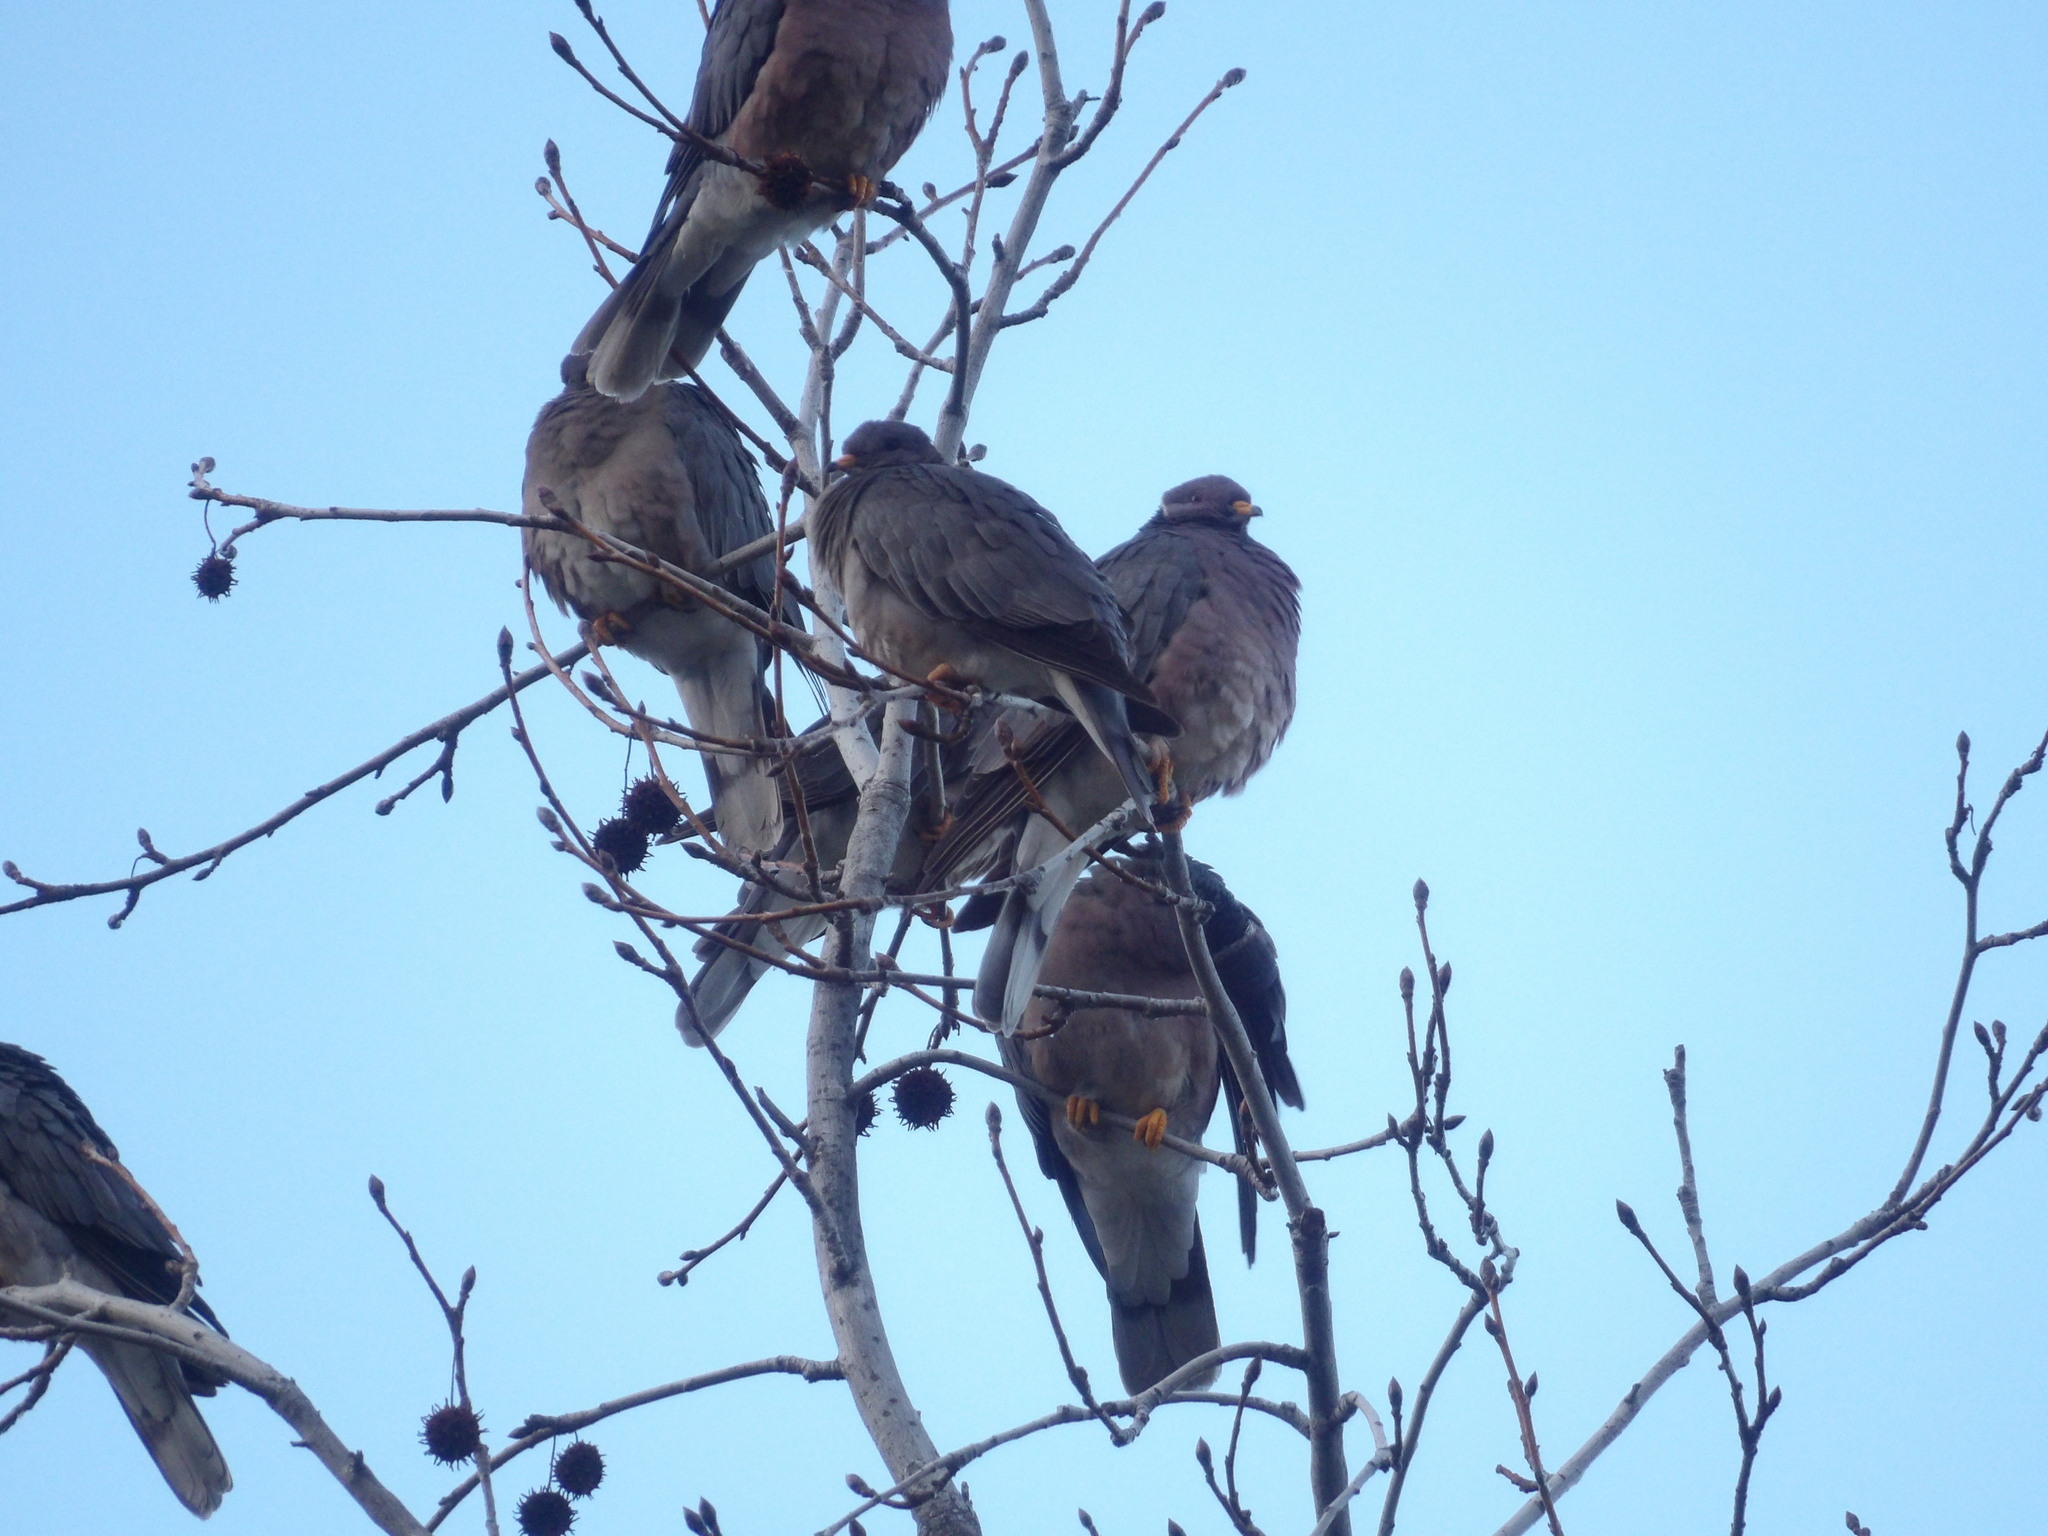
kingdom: Animalia
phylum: Chordata
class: Aves
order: Columbiformes
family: Columbidae
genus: Patagioenas
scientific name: Patagioenas fasciata
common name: Band-tailed pigeon
